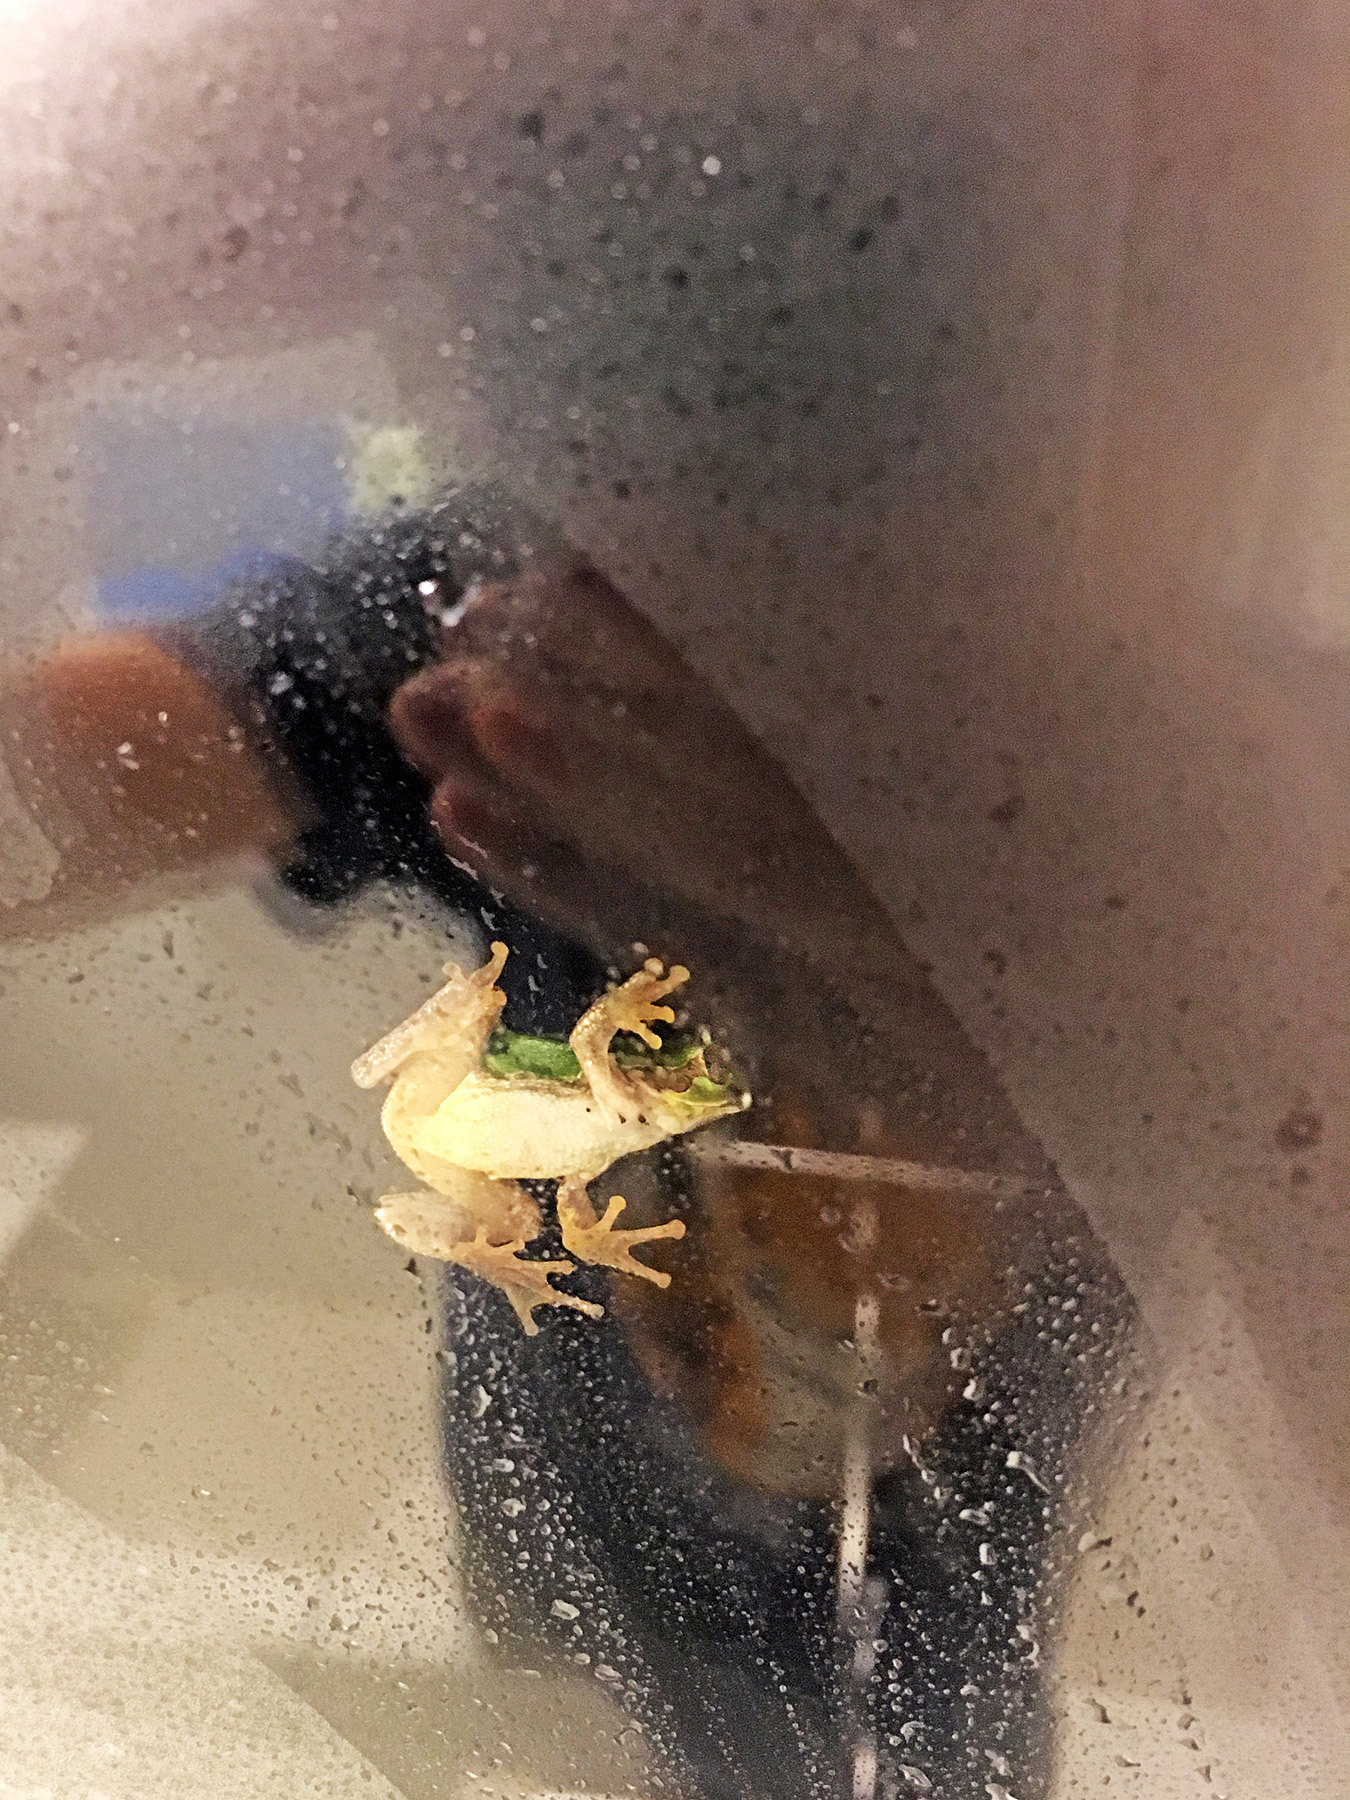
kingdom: Animalia
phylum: Chordata
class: Amphibia
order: Anura
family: Hylidae
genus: Dryophytes
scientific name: Dryophytes japonicus
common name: Japanese treefrog
